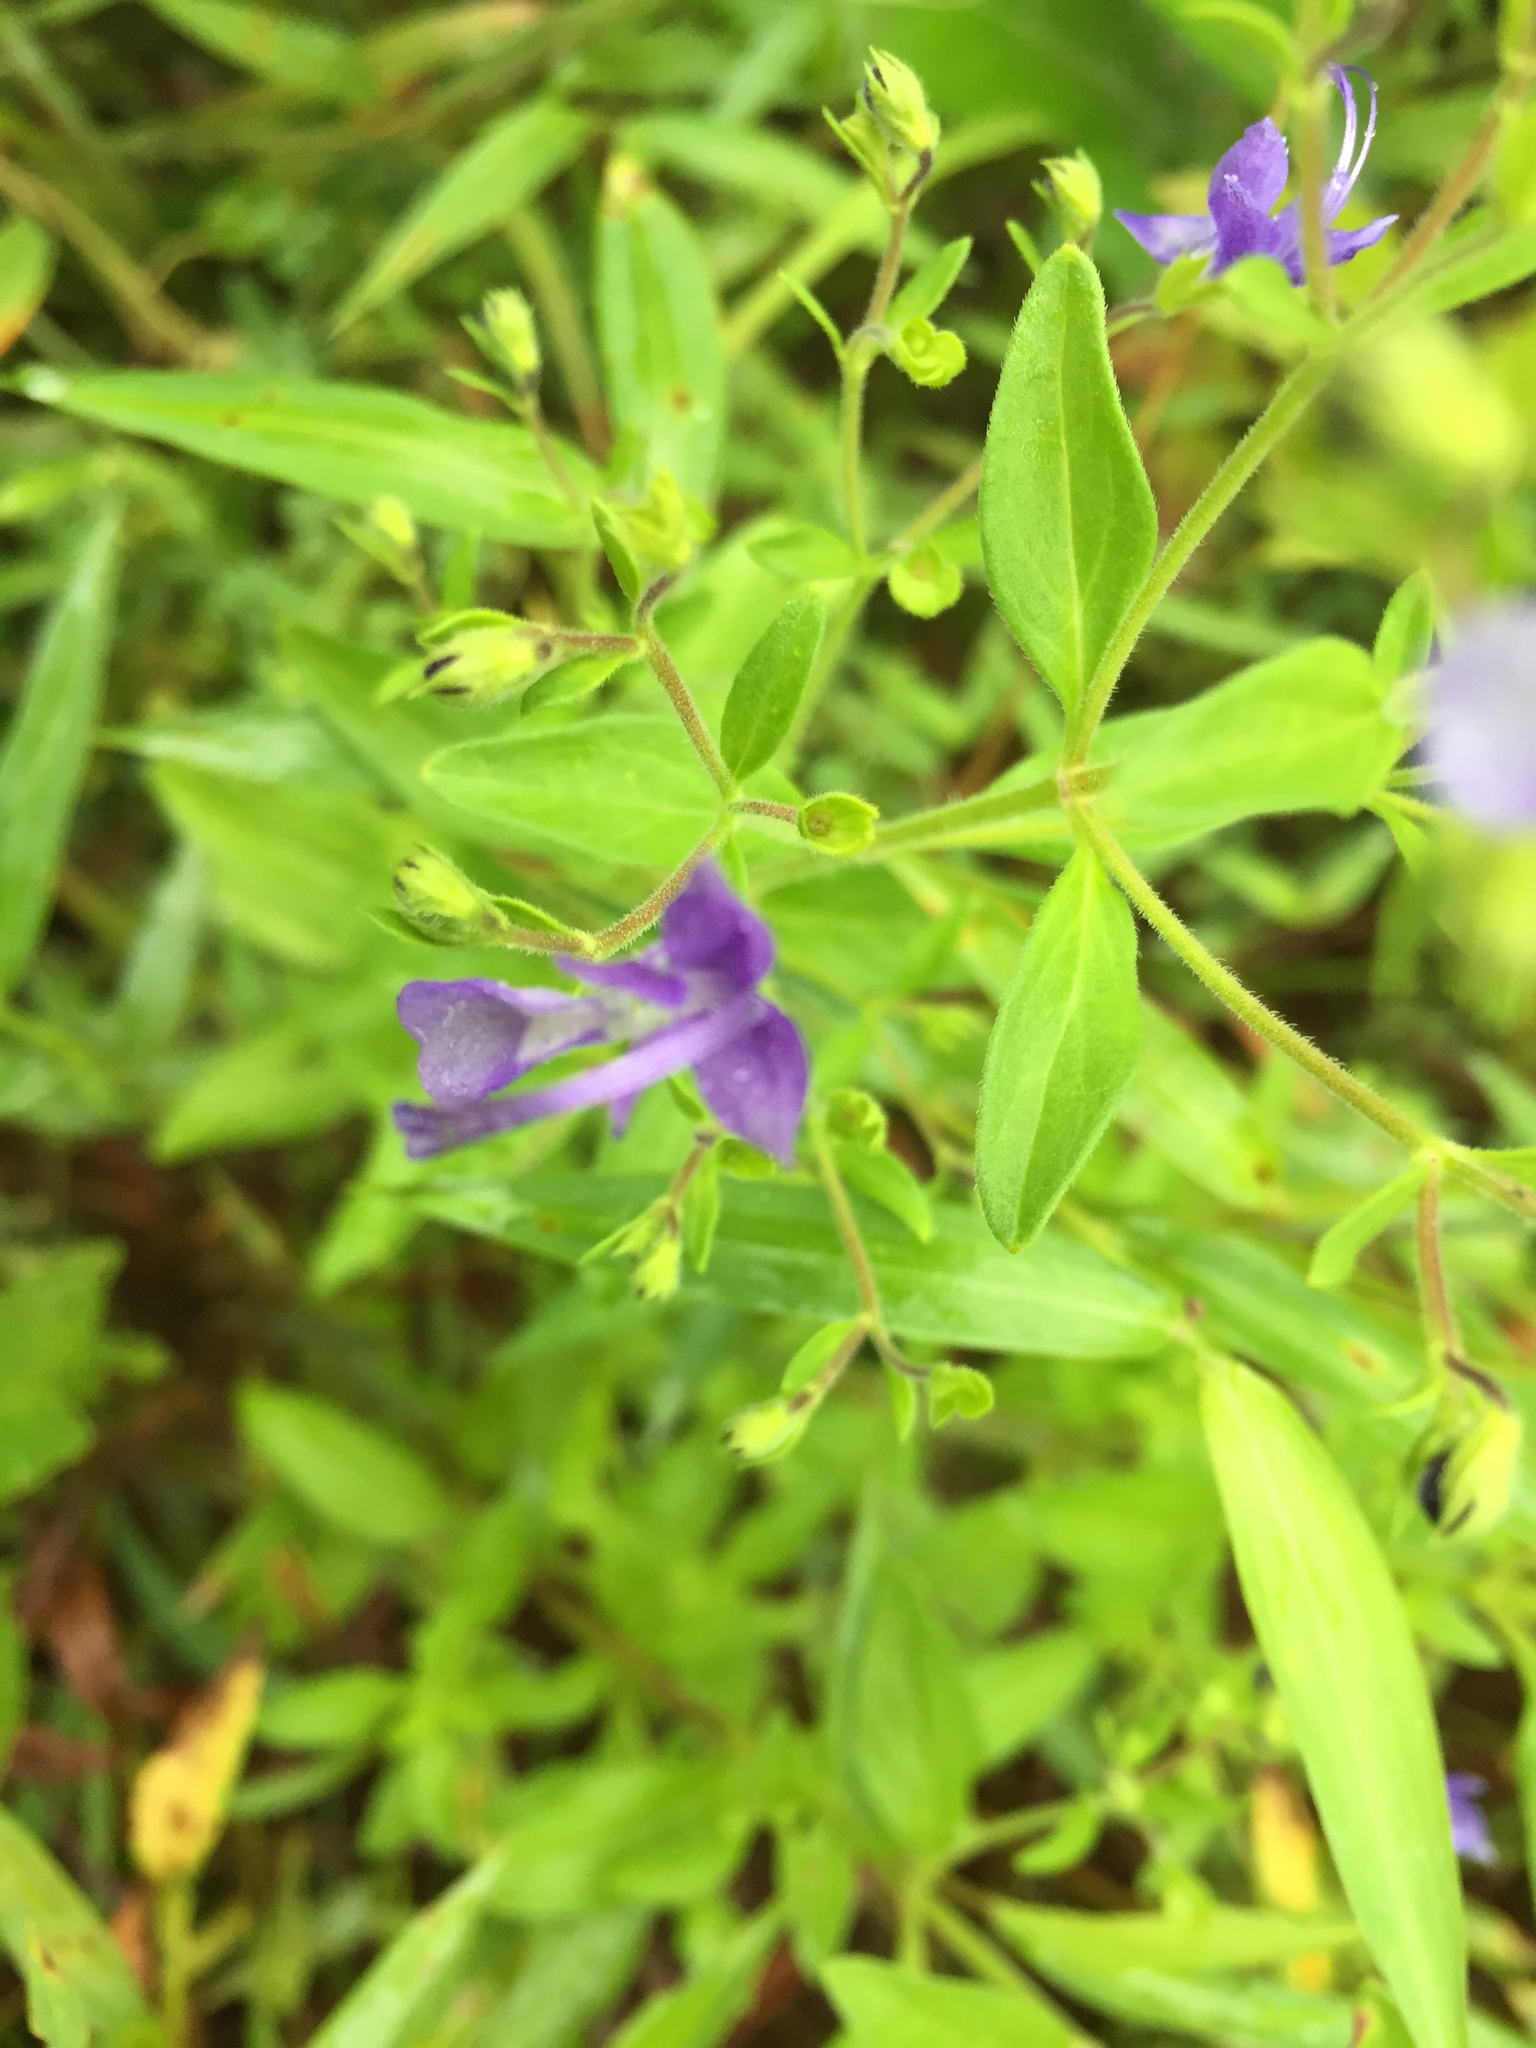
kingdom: Plantae
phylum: Tracheophyta
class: Magnoliopsida
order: Lamiales
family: Lamiaceae
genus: Trichostema
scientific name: Trichostema dichotomum
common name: Bastard pennyroyal
